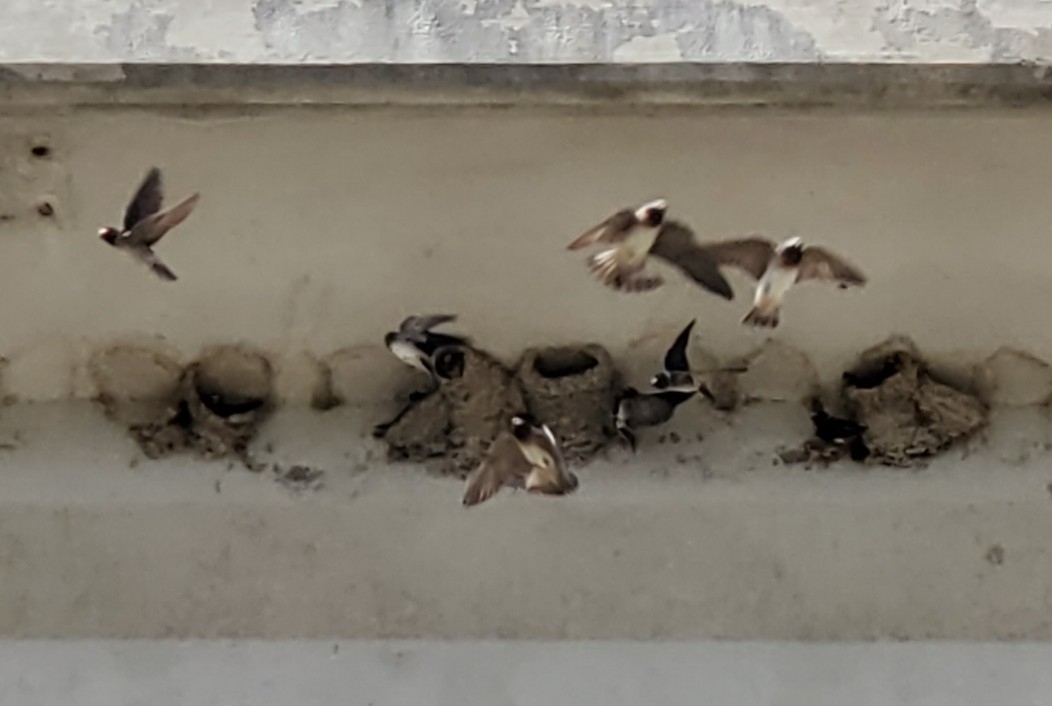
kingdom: Animalia
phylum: Chordata
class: Aves
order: Passeriformes
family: Hirundinidae
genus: Petrochelidon
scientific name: Petrochelidon pyrrhonota
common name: American cliff swallow
